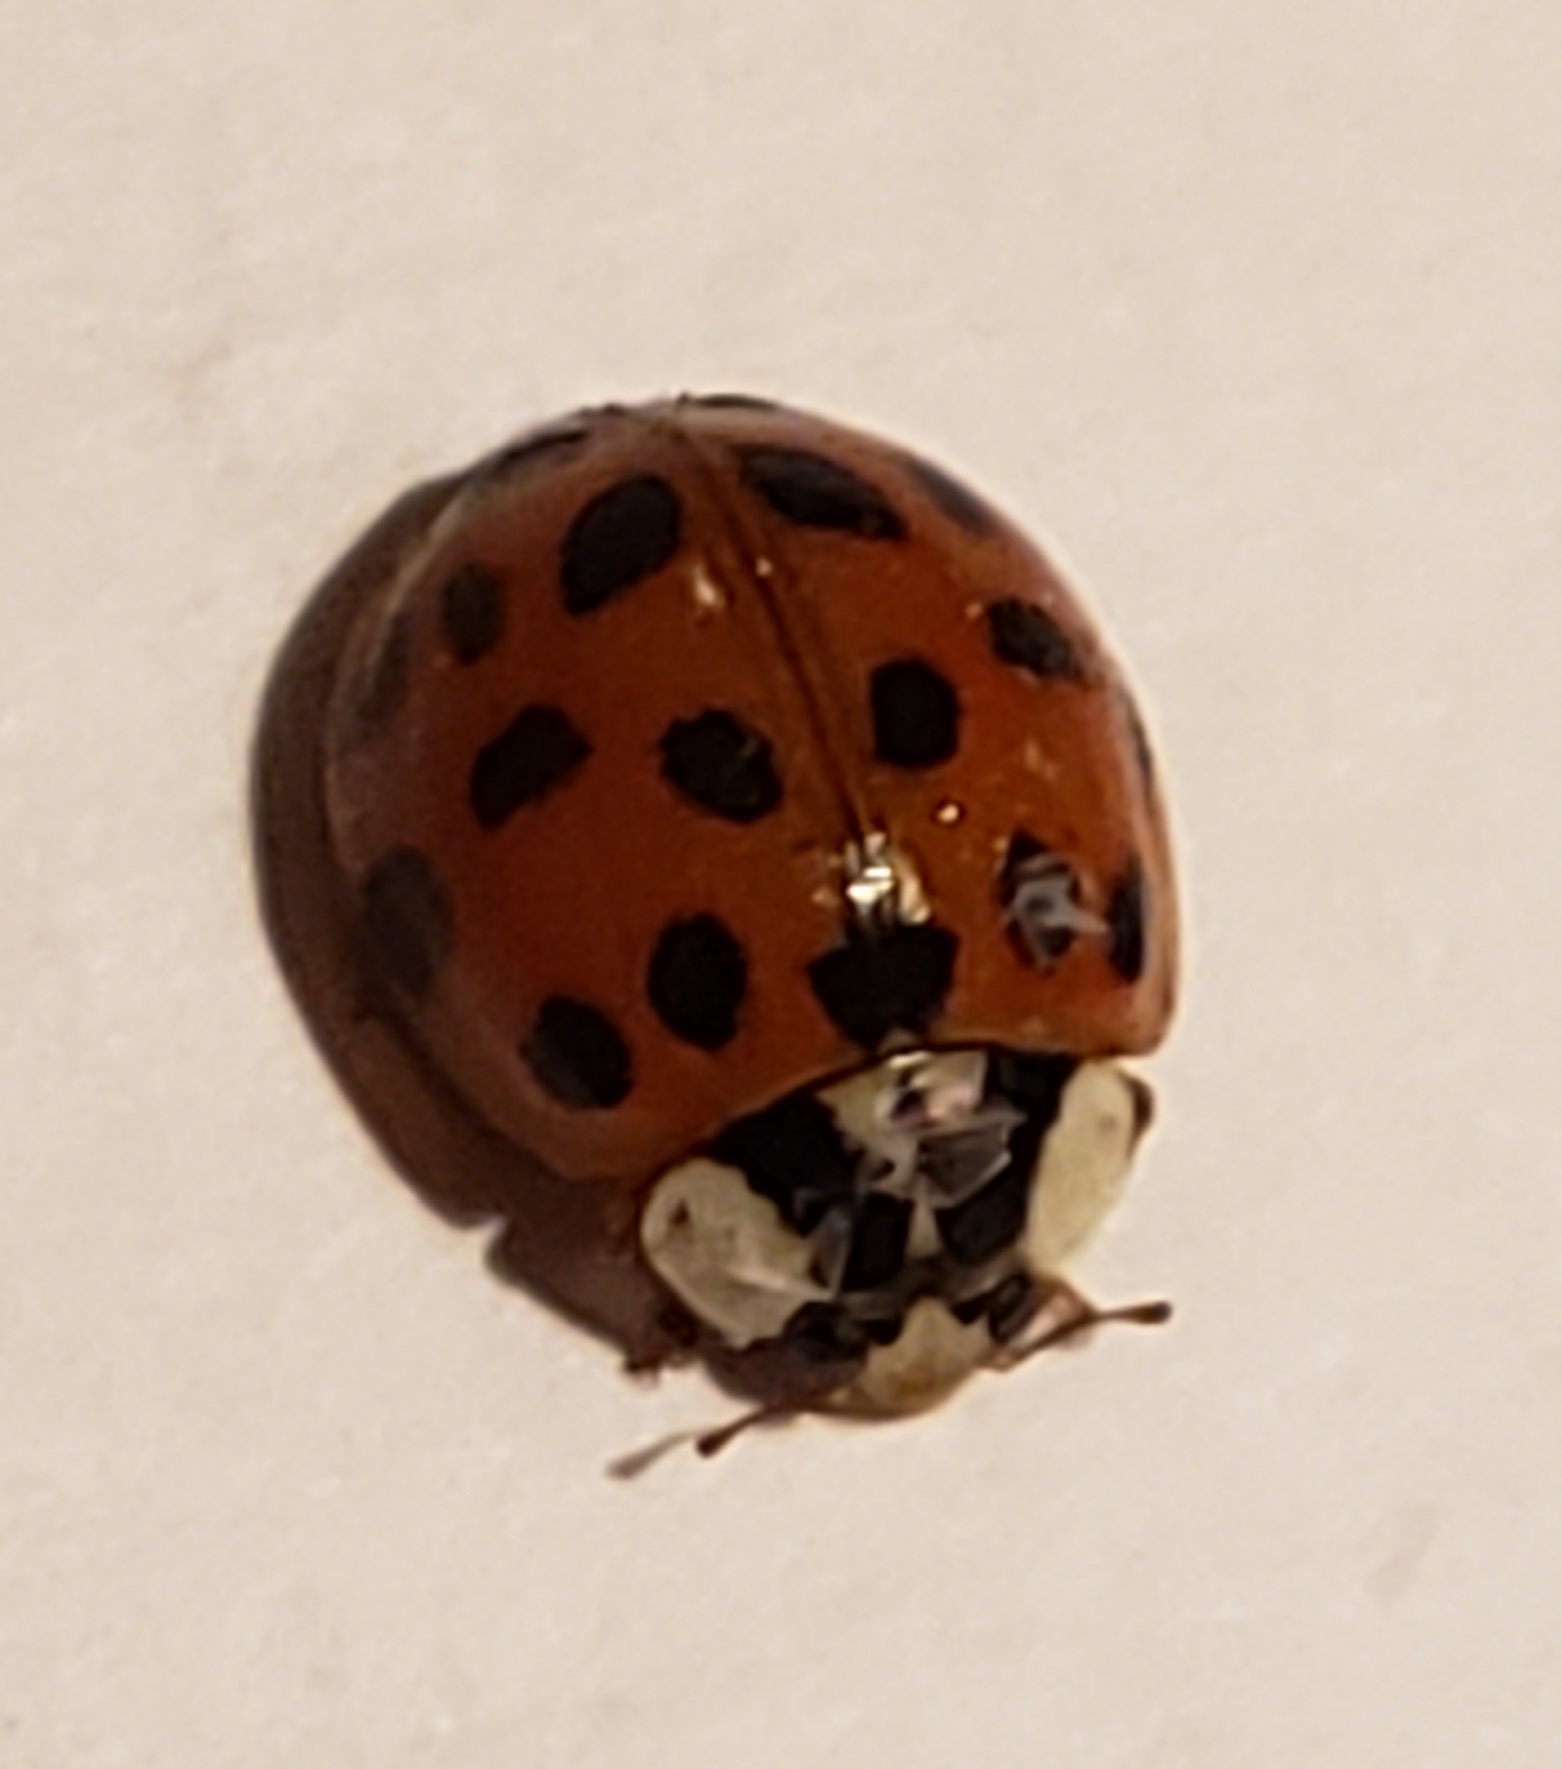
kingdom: Animalia
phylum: Arthropoda
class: Insecta
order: Coleoptera
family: Coccinellidae
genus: Harmonia
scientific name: Harmonia axyridis
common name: Harlequin ladybird
